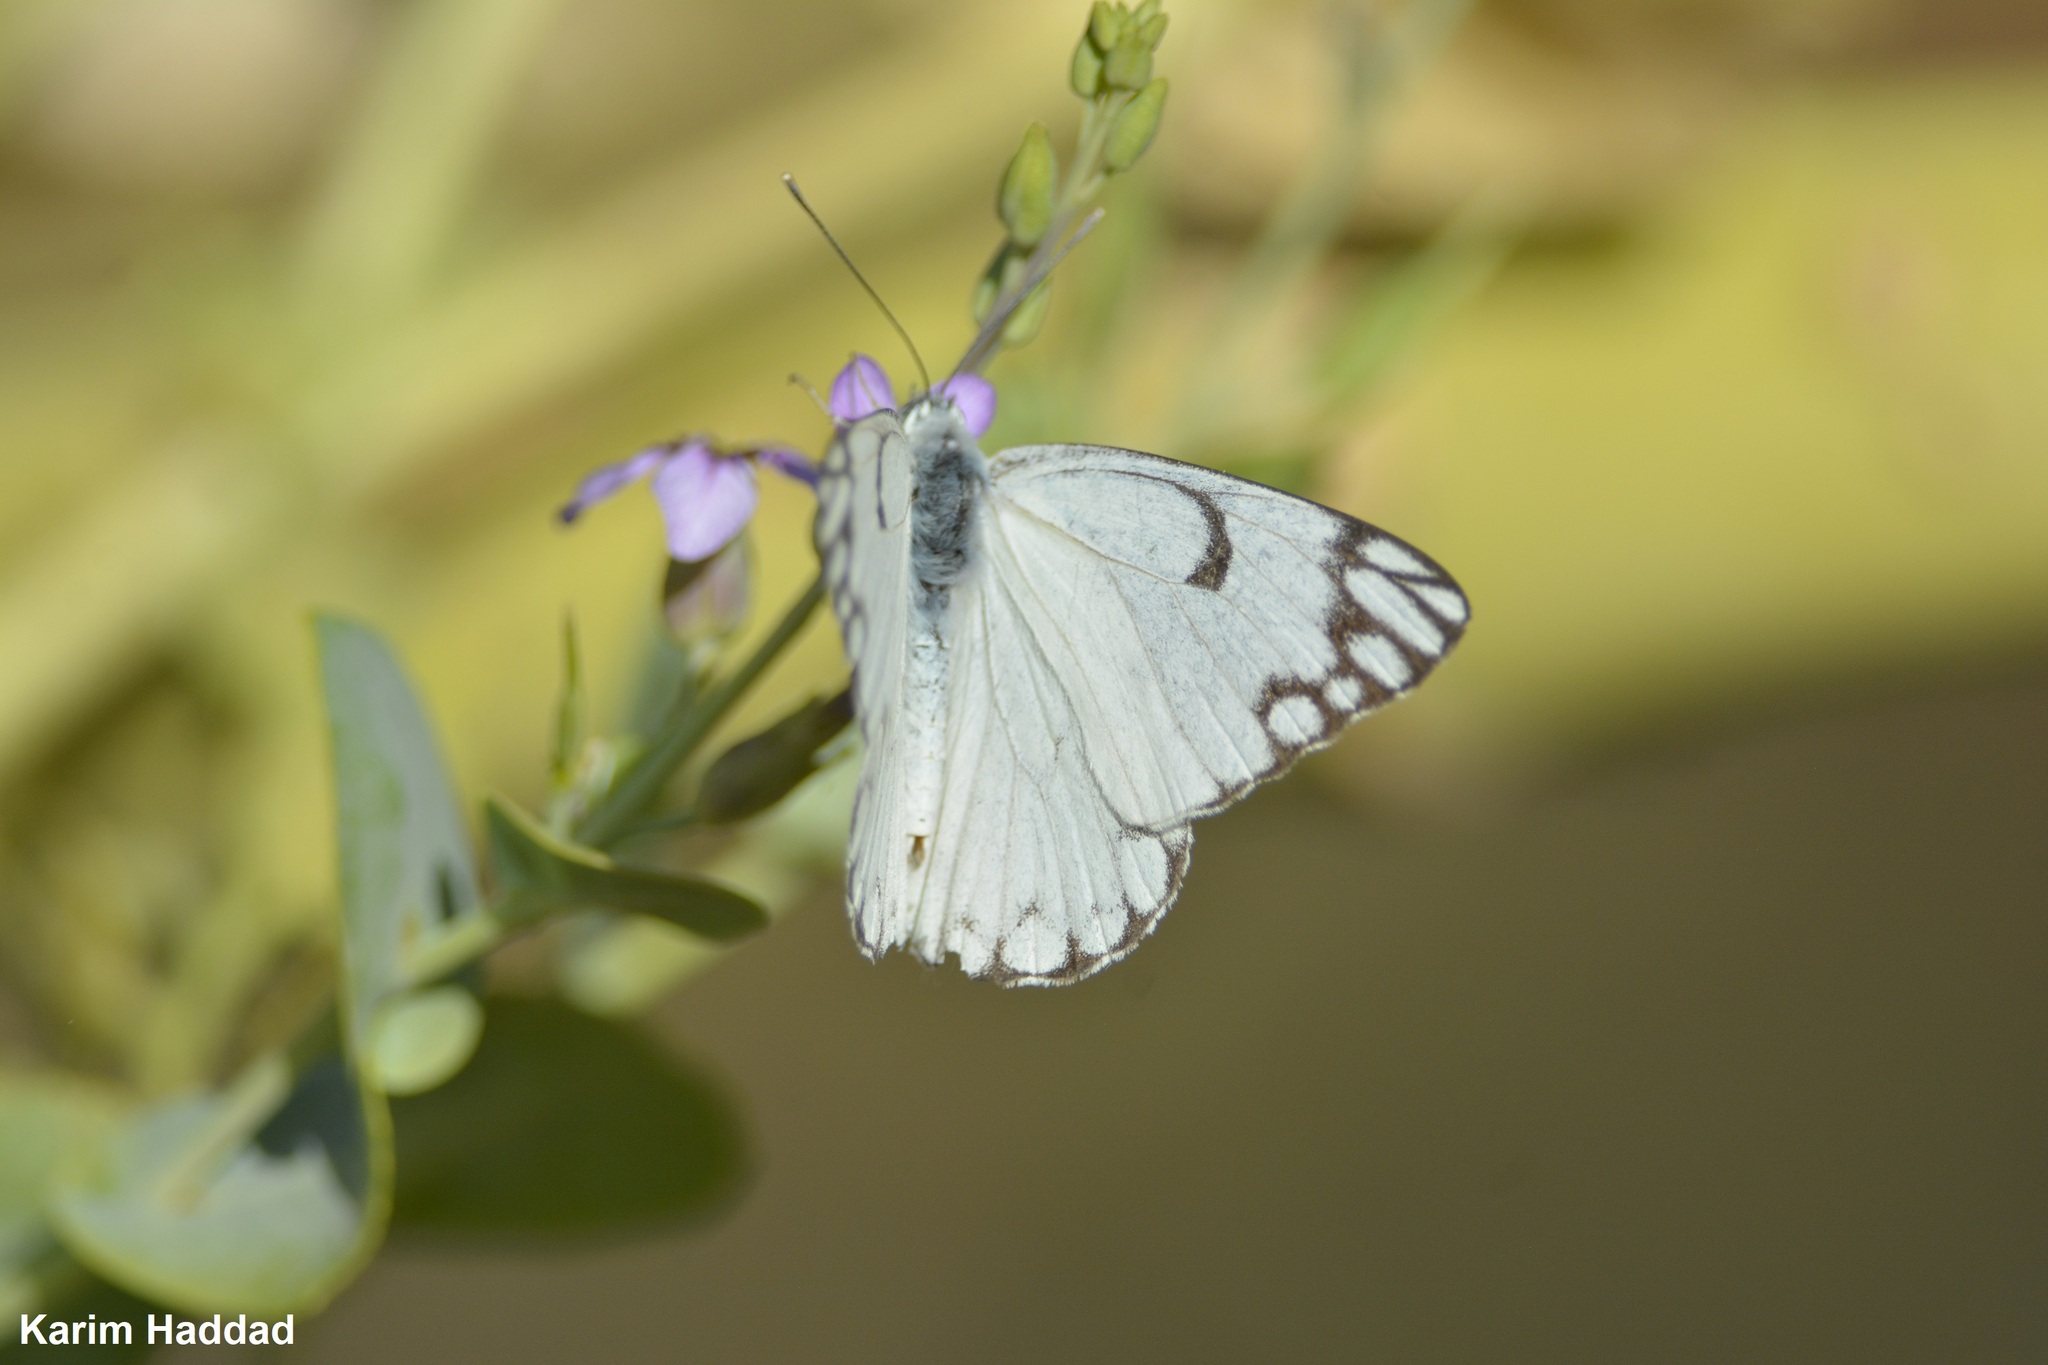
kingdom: Animalia
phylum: Arthropoda
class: Insecta
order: Lepidoptera
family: Pieridae
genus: Belenois
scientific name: Belenois aurota
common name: Brown-veined white
